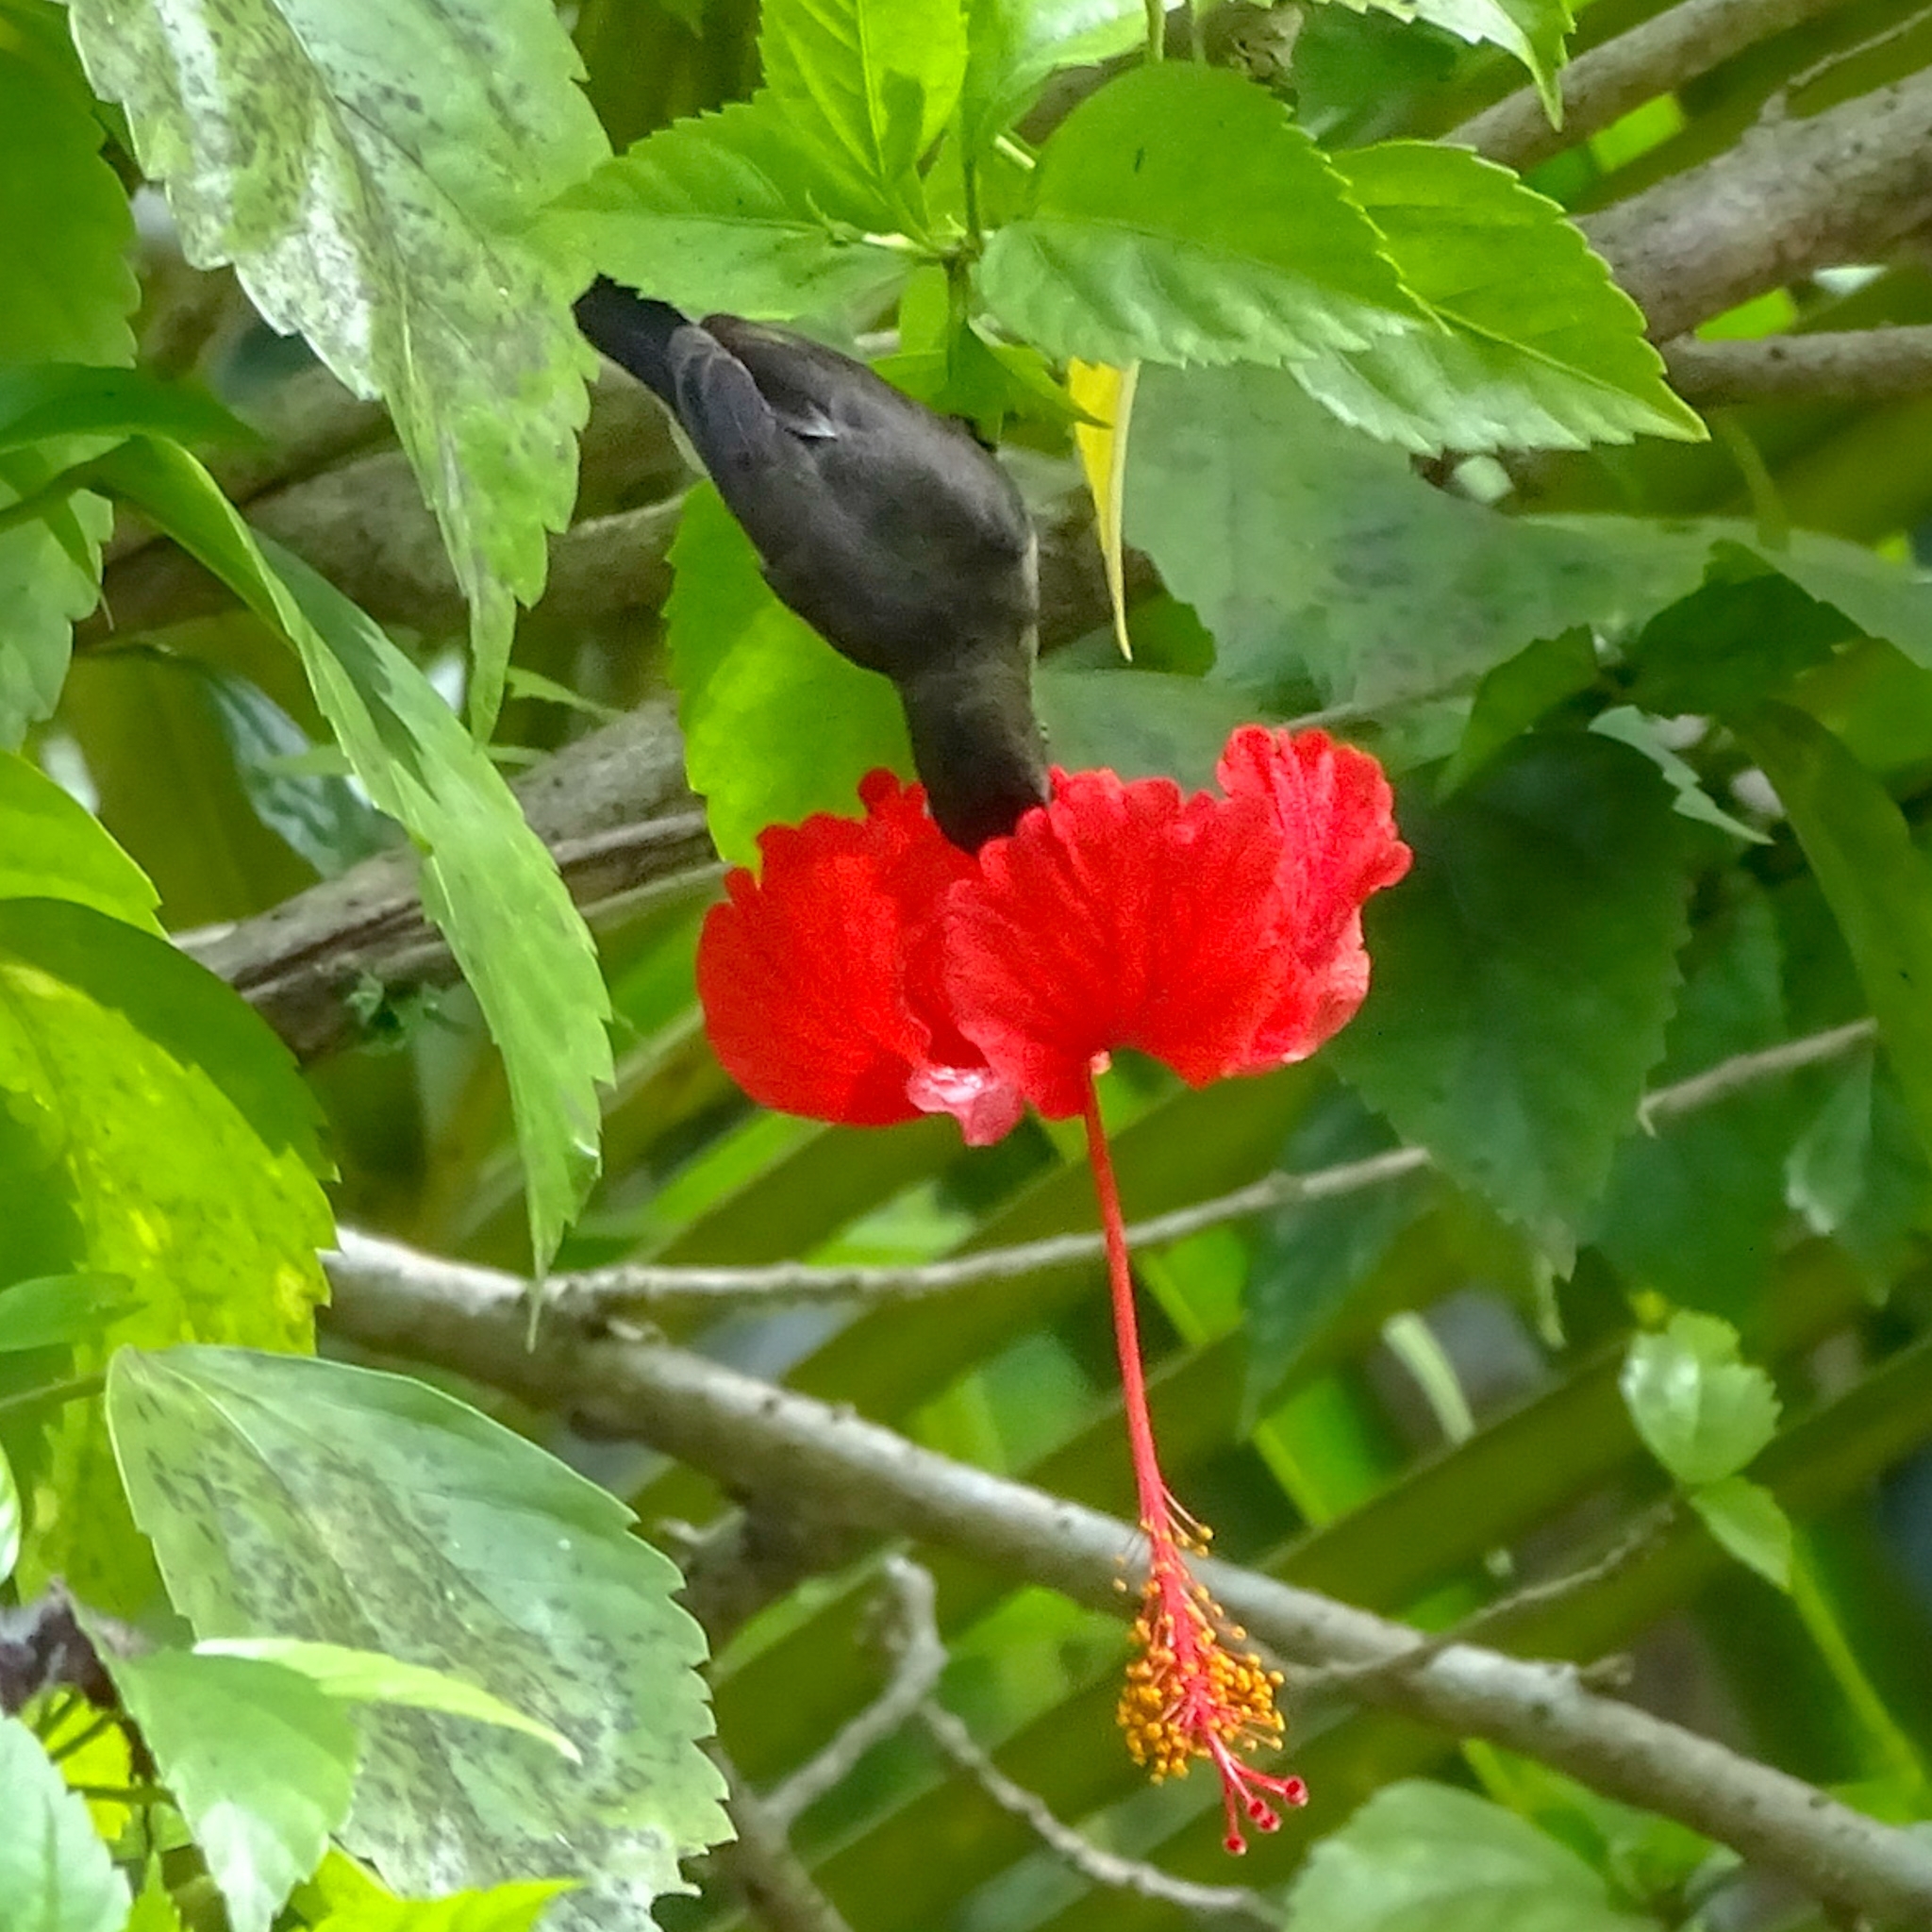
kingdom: Animalia
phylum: Chordata
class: Aves
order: Passeriformes
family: Nectariniidae
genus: Cinnyris
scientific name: Cinnyris lotenius
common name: Loten's sunbird
